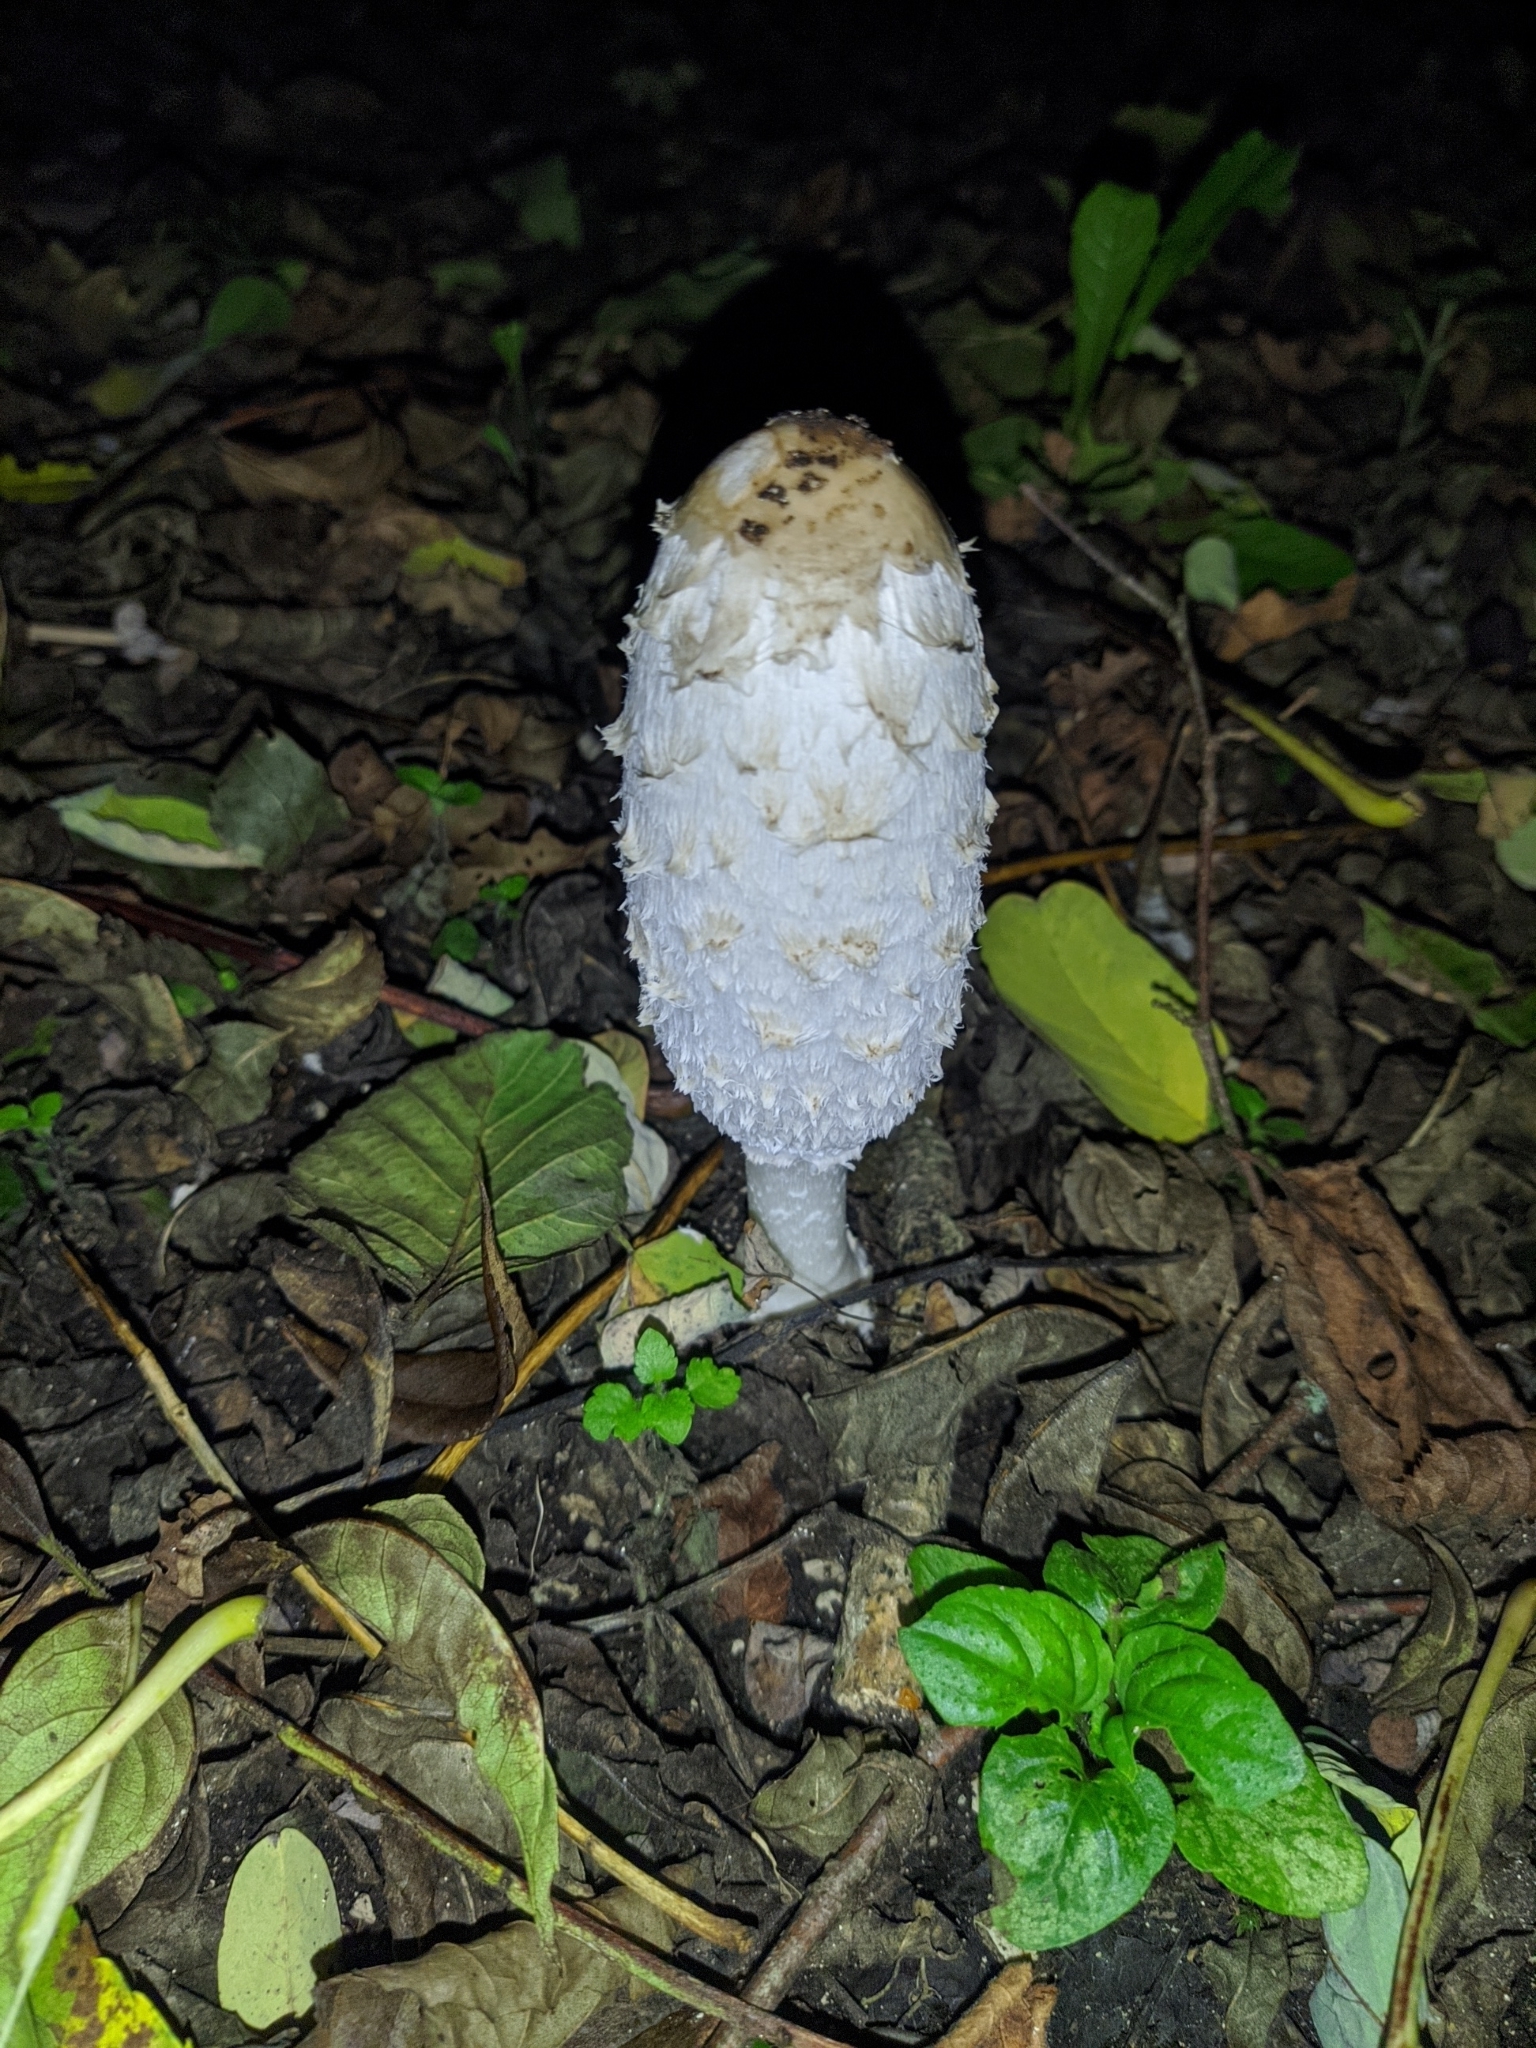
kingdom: Fungi
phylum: Basidiomycota
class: Agaricomycetes
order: Agaricales
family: Agaricaceae
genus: Coprinus
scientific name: Coprinus comatus
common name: Lawyer's wig
